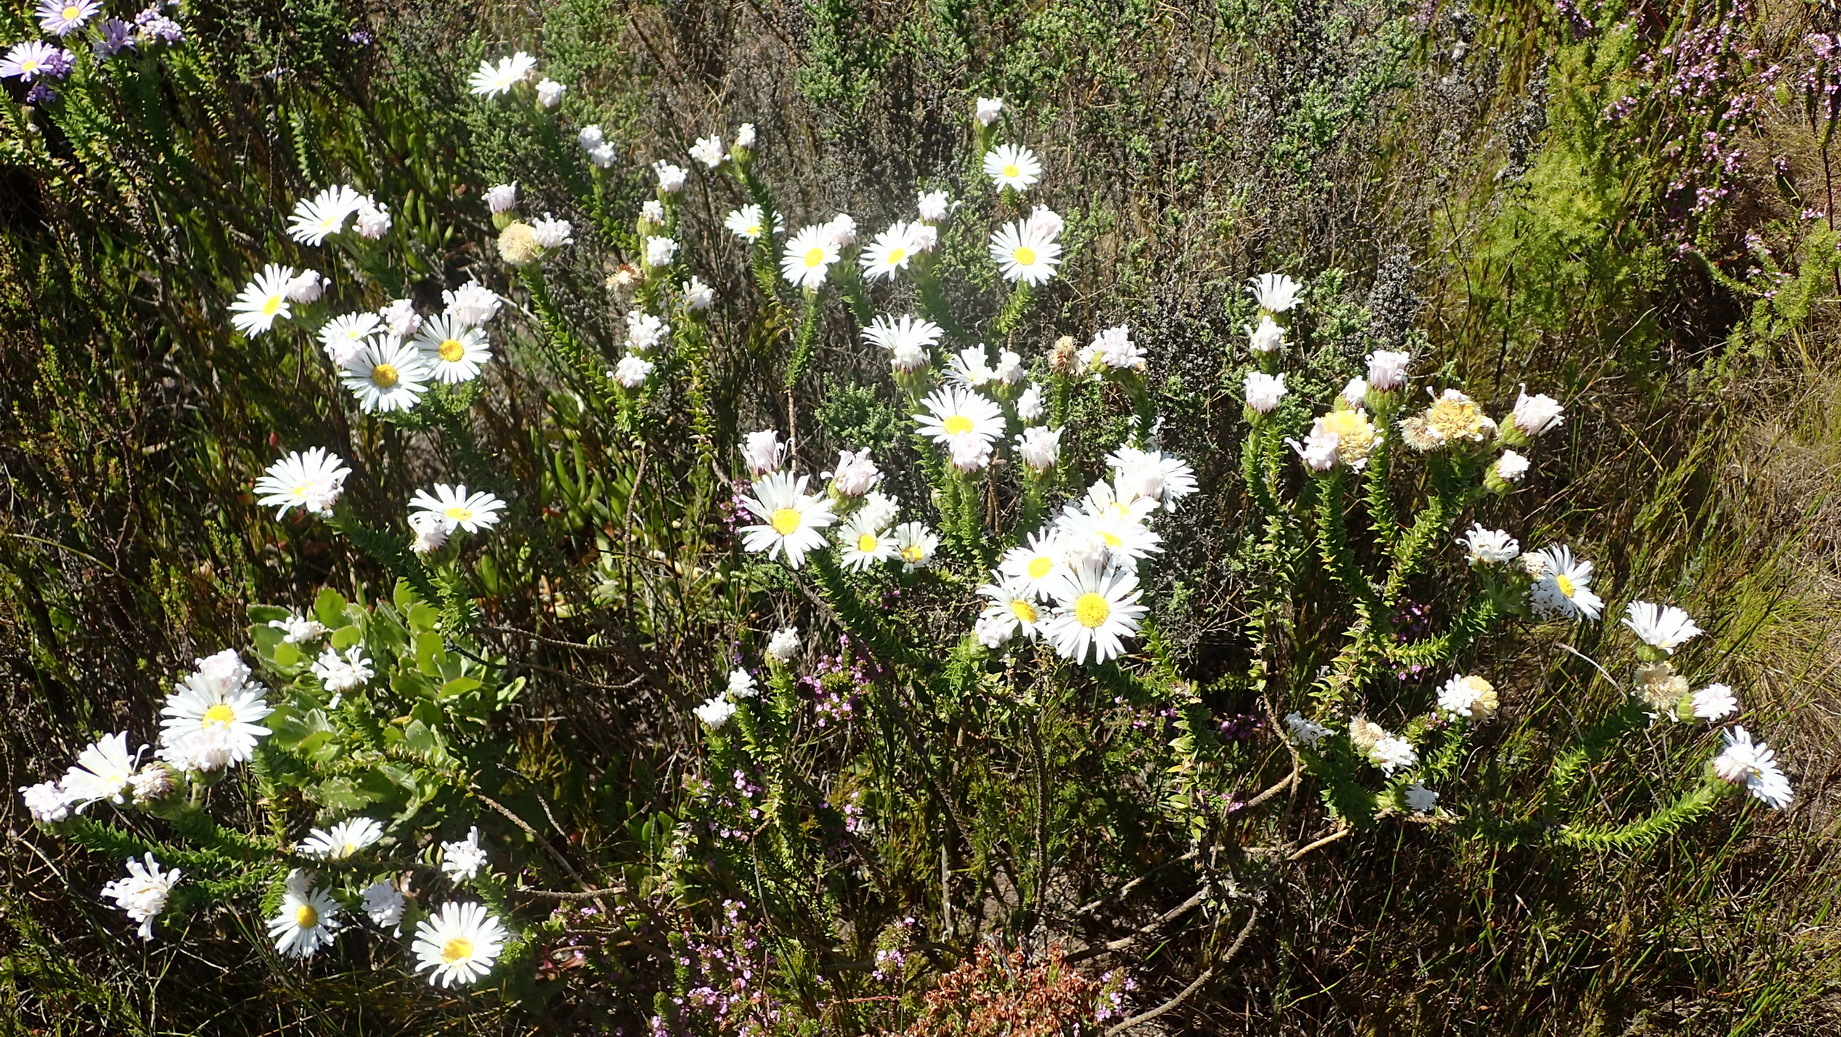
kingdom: Plantae
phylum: Tracheophyta
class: Magnoliopsida
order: Asterales
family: Asteraceae
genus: Felicia
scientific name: Felicia echinata
